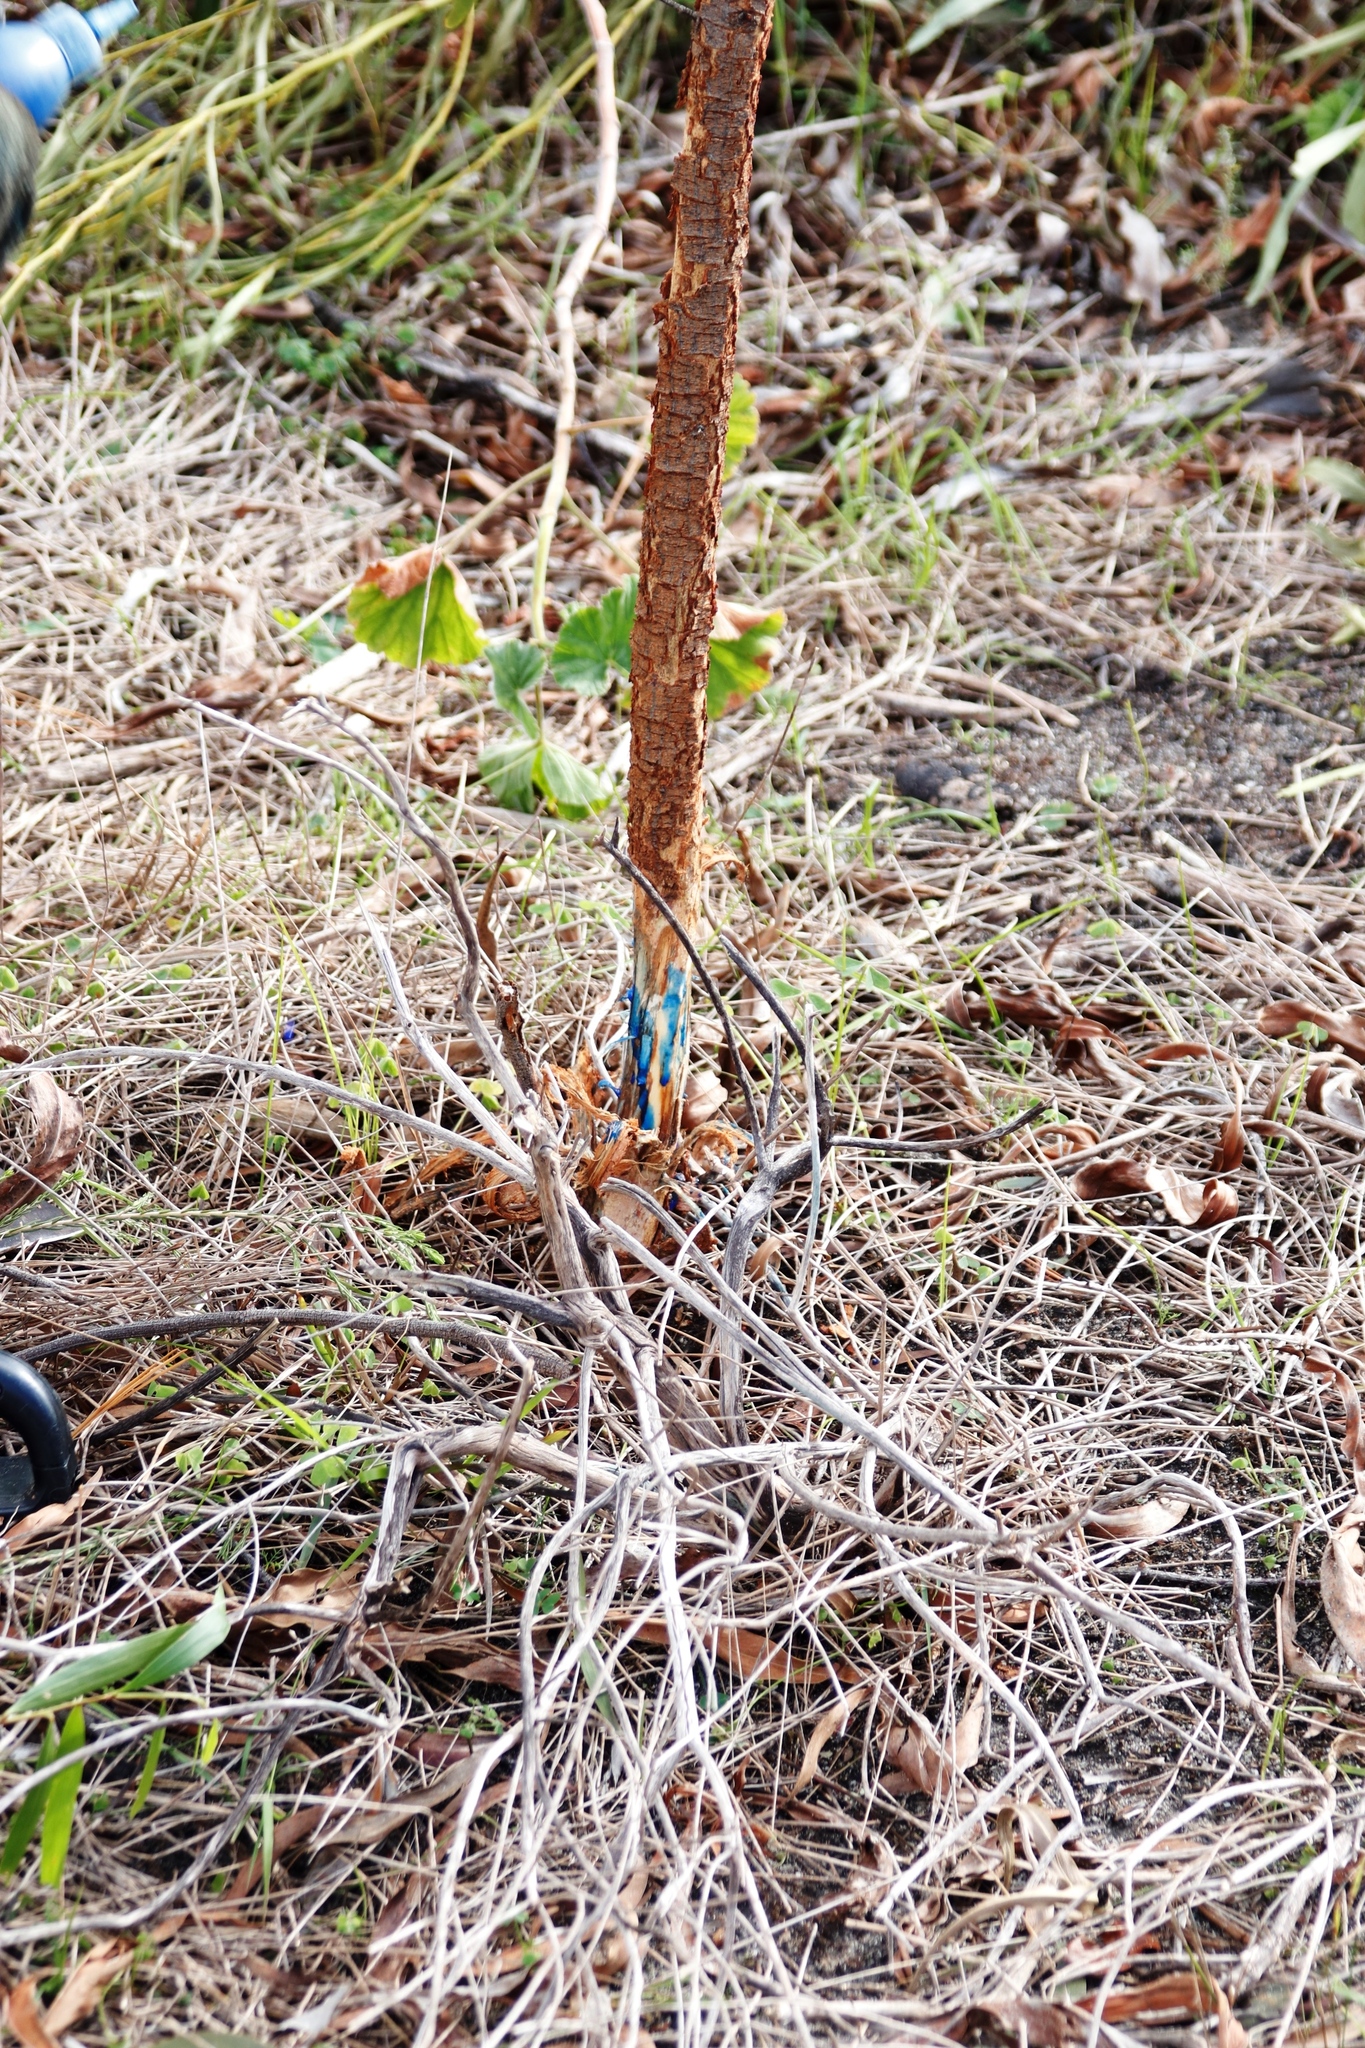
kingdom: Plantae
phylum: Tracheophyta
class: Magnoliopsida
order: Fabales
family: Fabaceae
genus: Acacia
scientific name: Acacia implexa
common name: Black wattle
